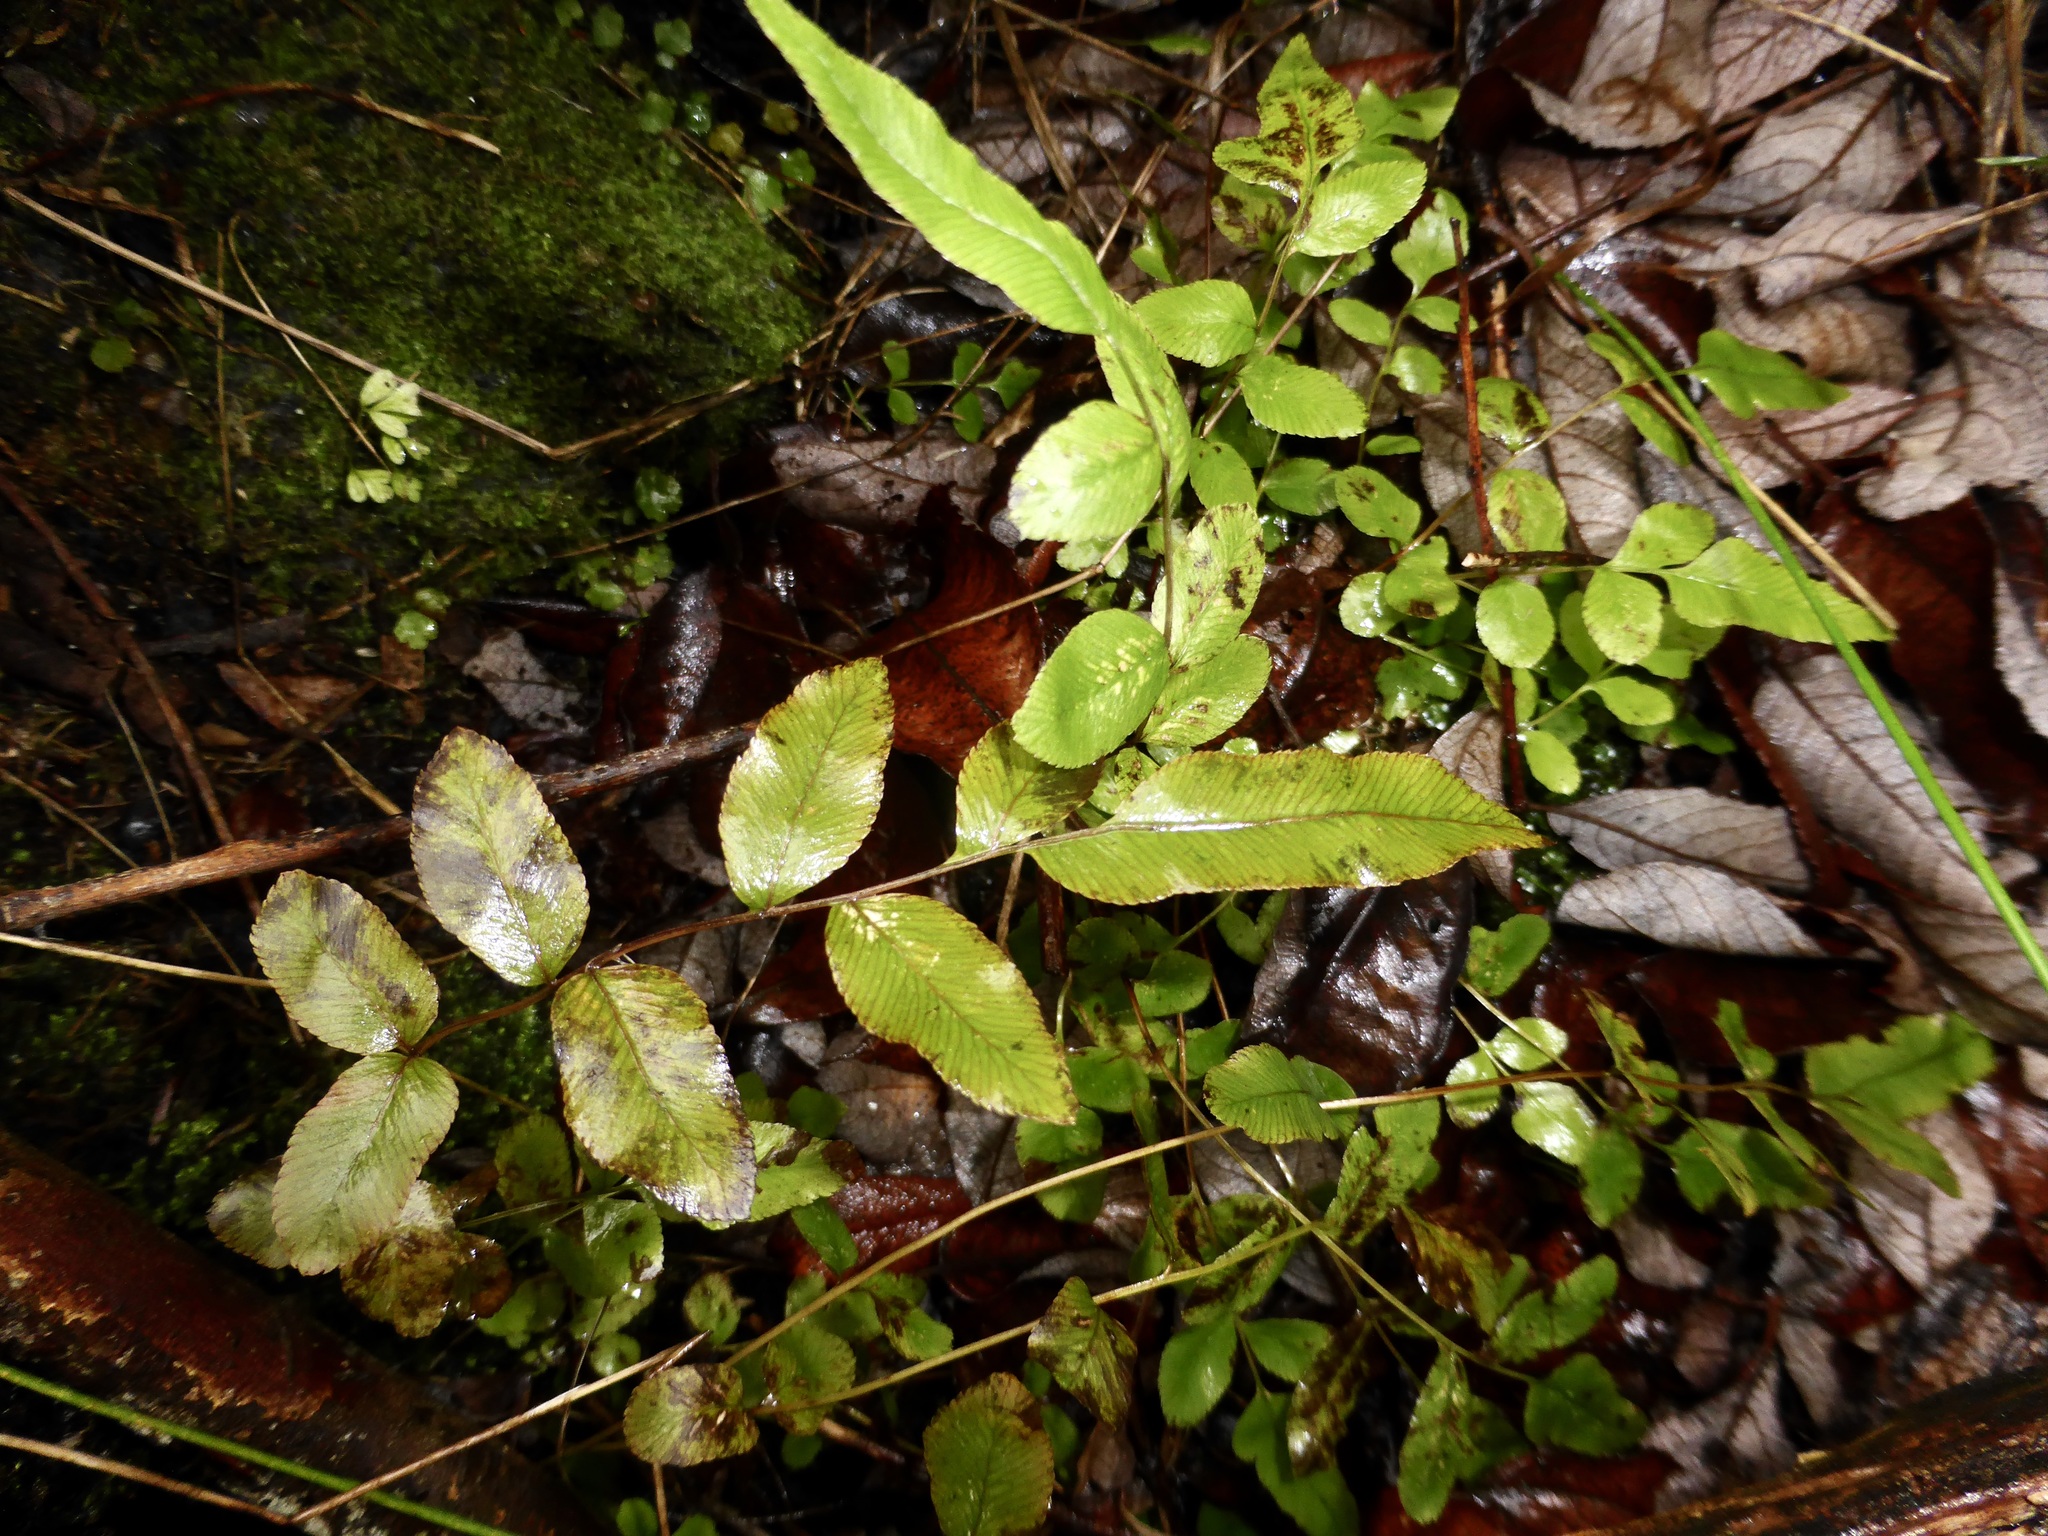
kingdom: Plantae
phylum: Tracheophyta
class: Polypodiopsida
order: Polypodiales
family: Blechnaceae
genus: Parablechnum
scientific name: Parablechnum minus
